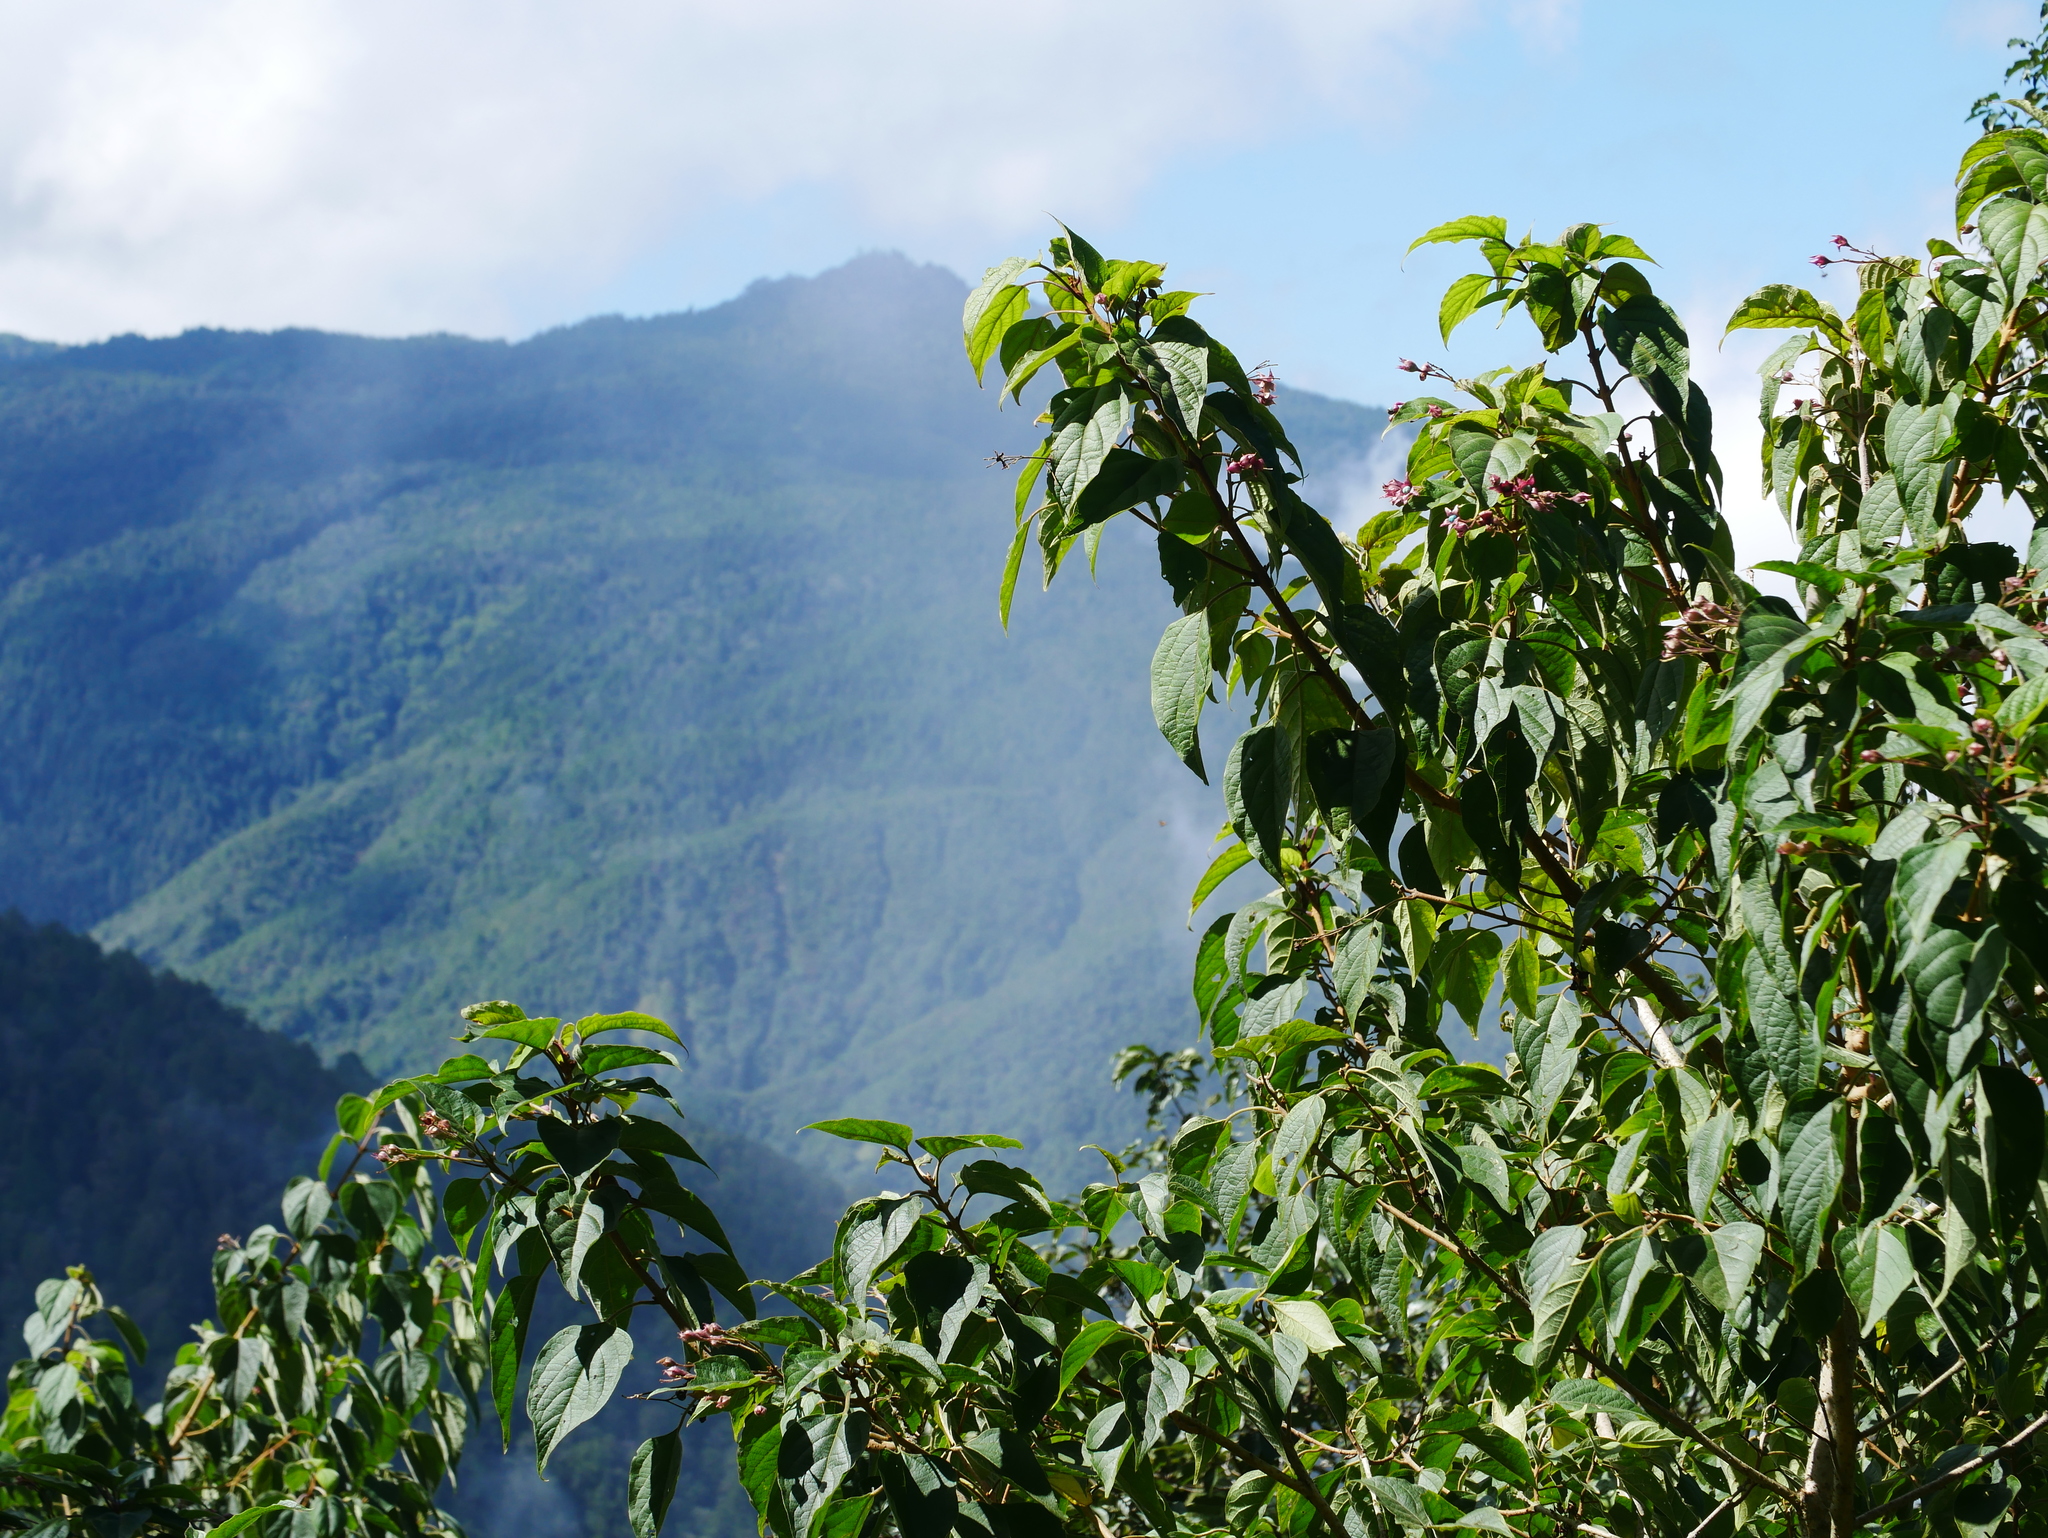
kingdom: Plantae
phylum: Tracheophyta
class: Magnoliopsida
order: Lamiales
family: Lamiaceae
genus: Clerodendrum
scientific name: Clerodendrum trichotomum
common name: Harlequin glorybower
